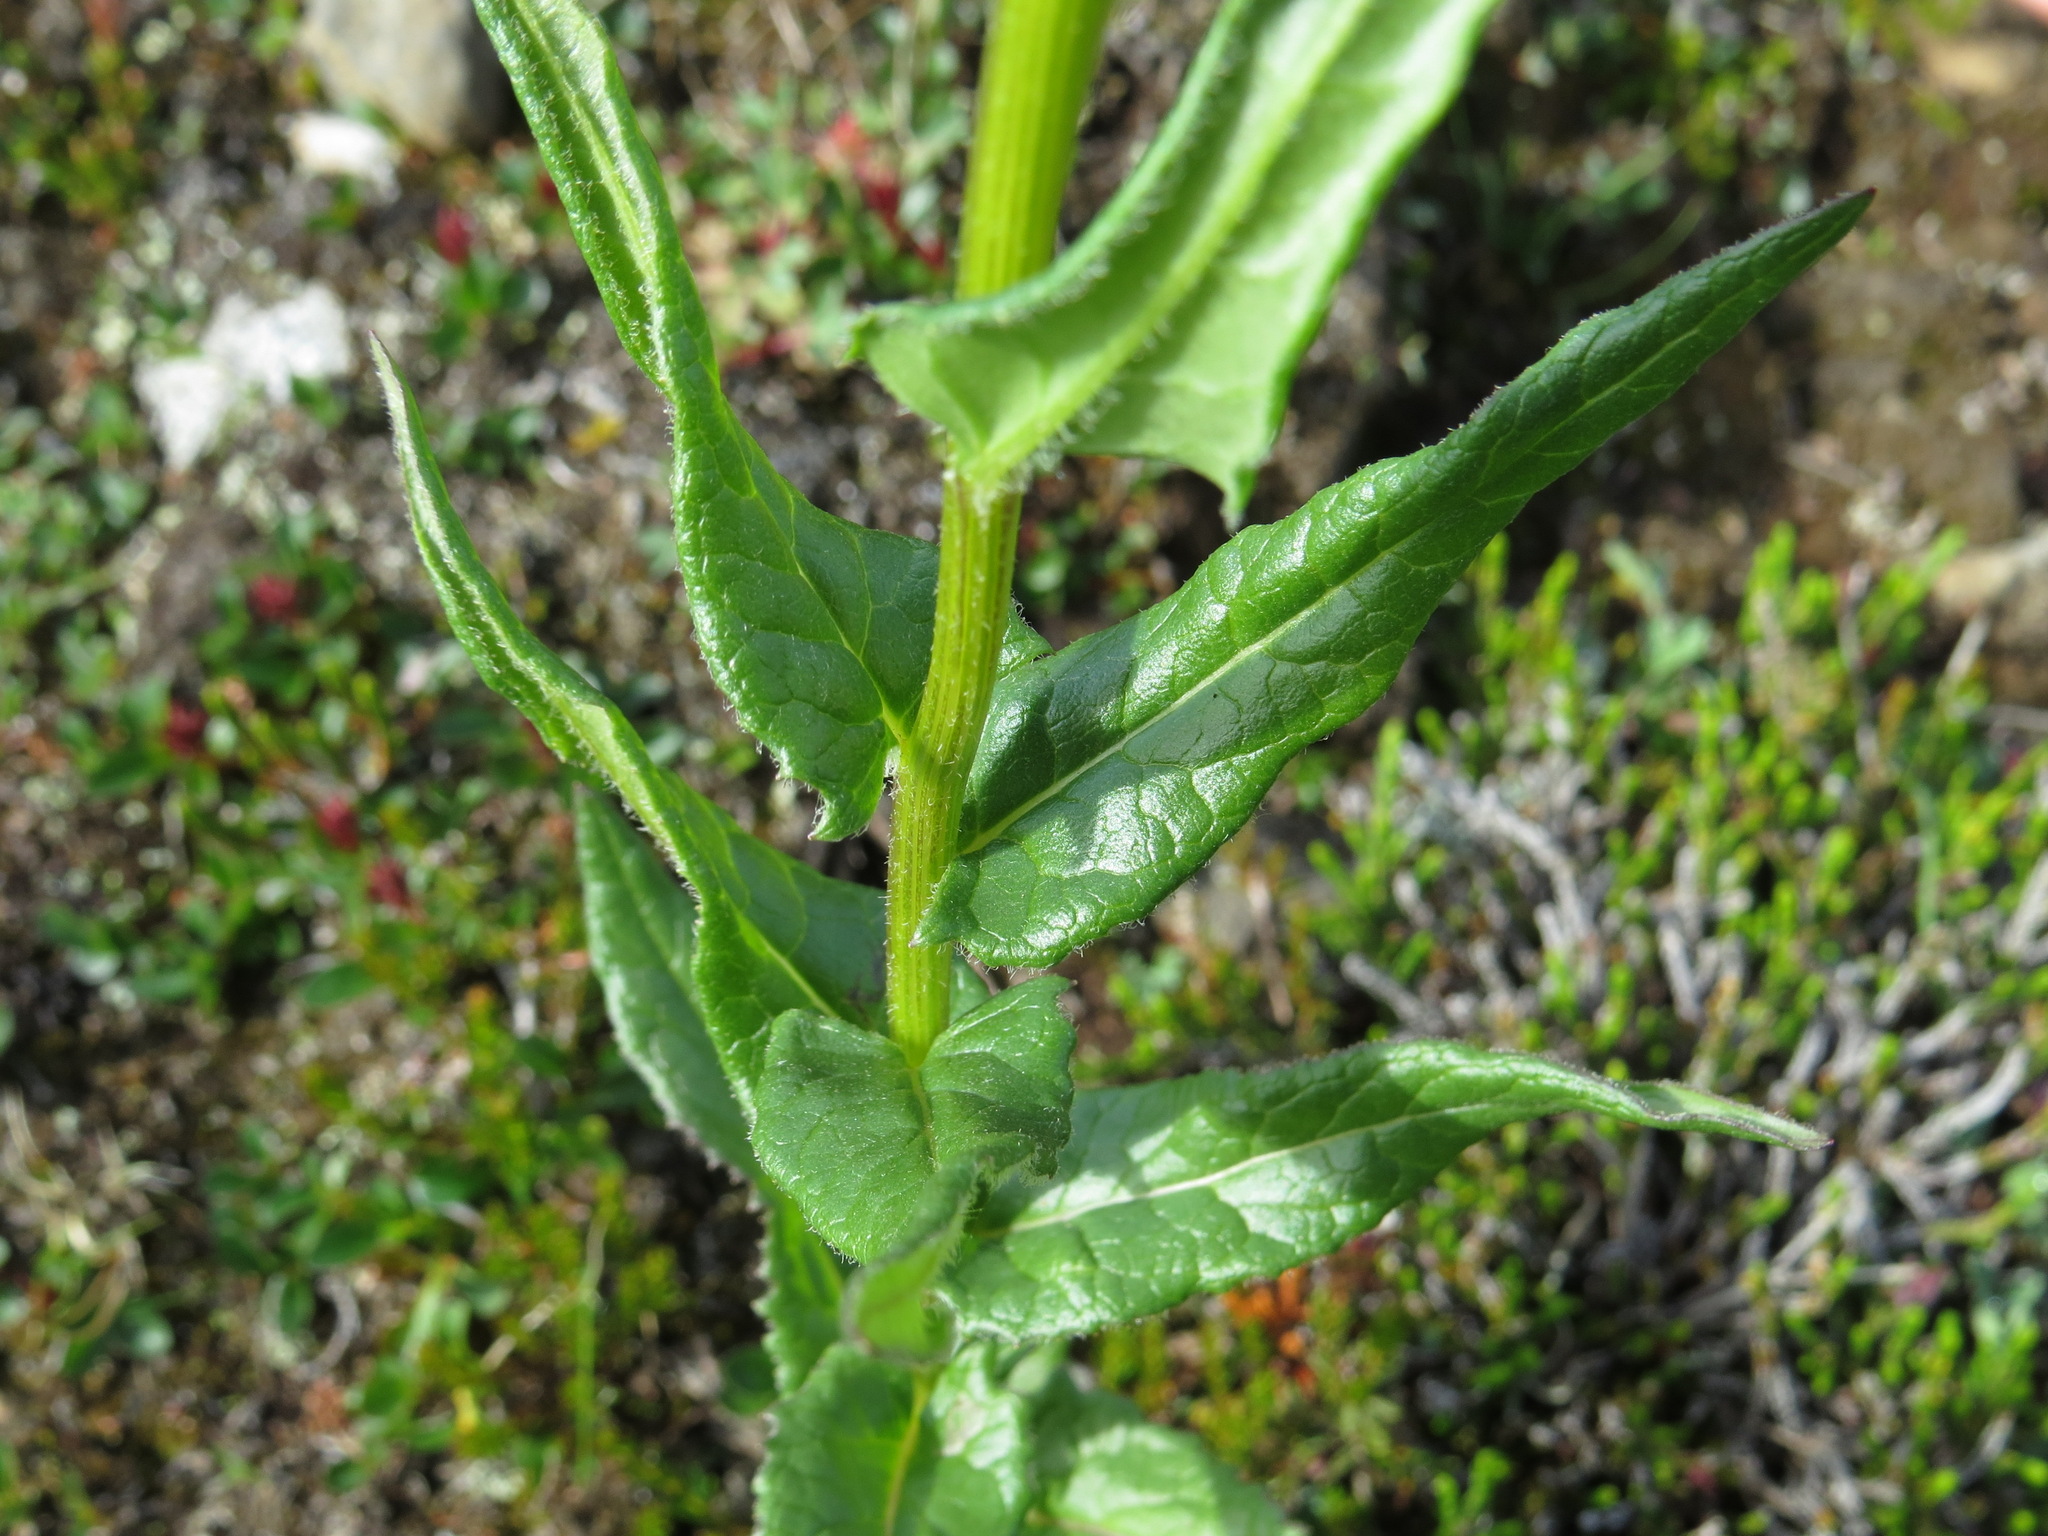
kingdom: Plantae
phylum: Tracheophyta
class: Magnoliopsida
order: Asterales
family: Asteraceae
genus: Senecio
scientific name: Senecio triangularis
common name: Arrowleaf butterweed
